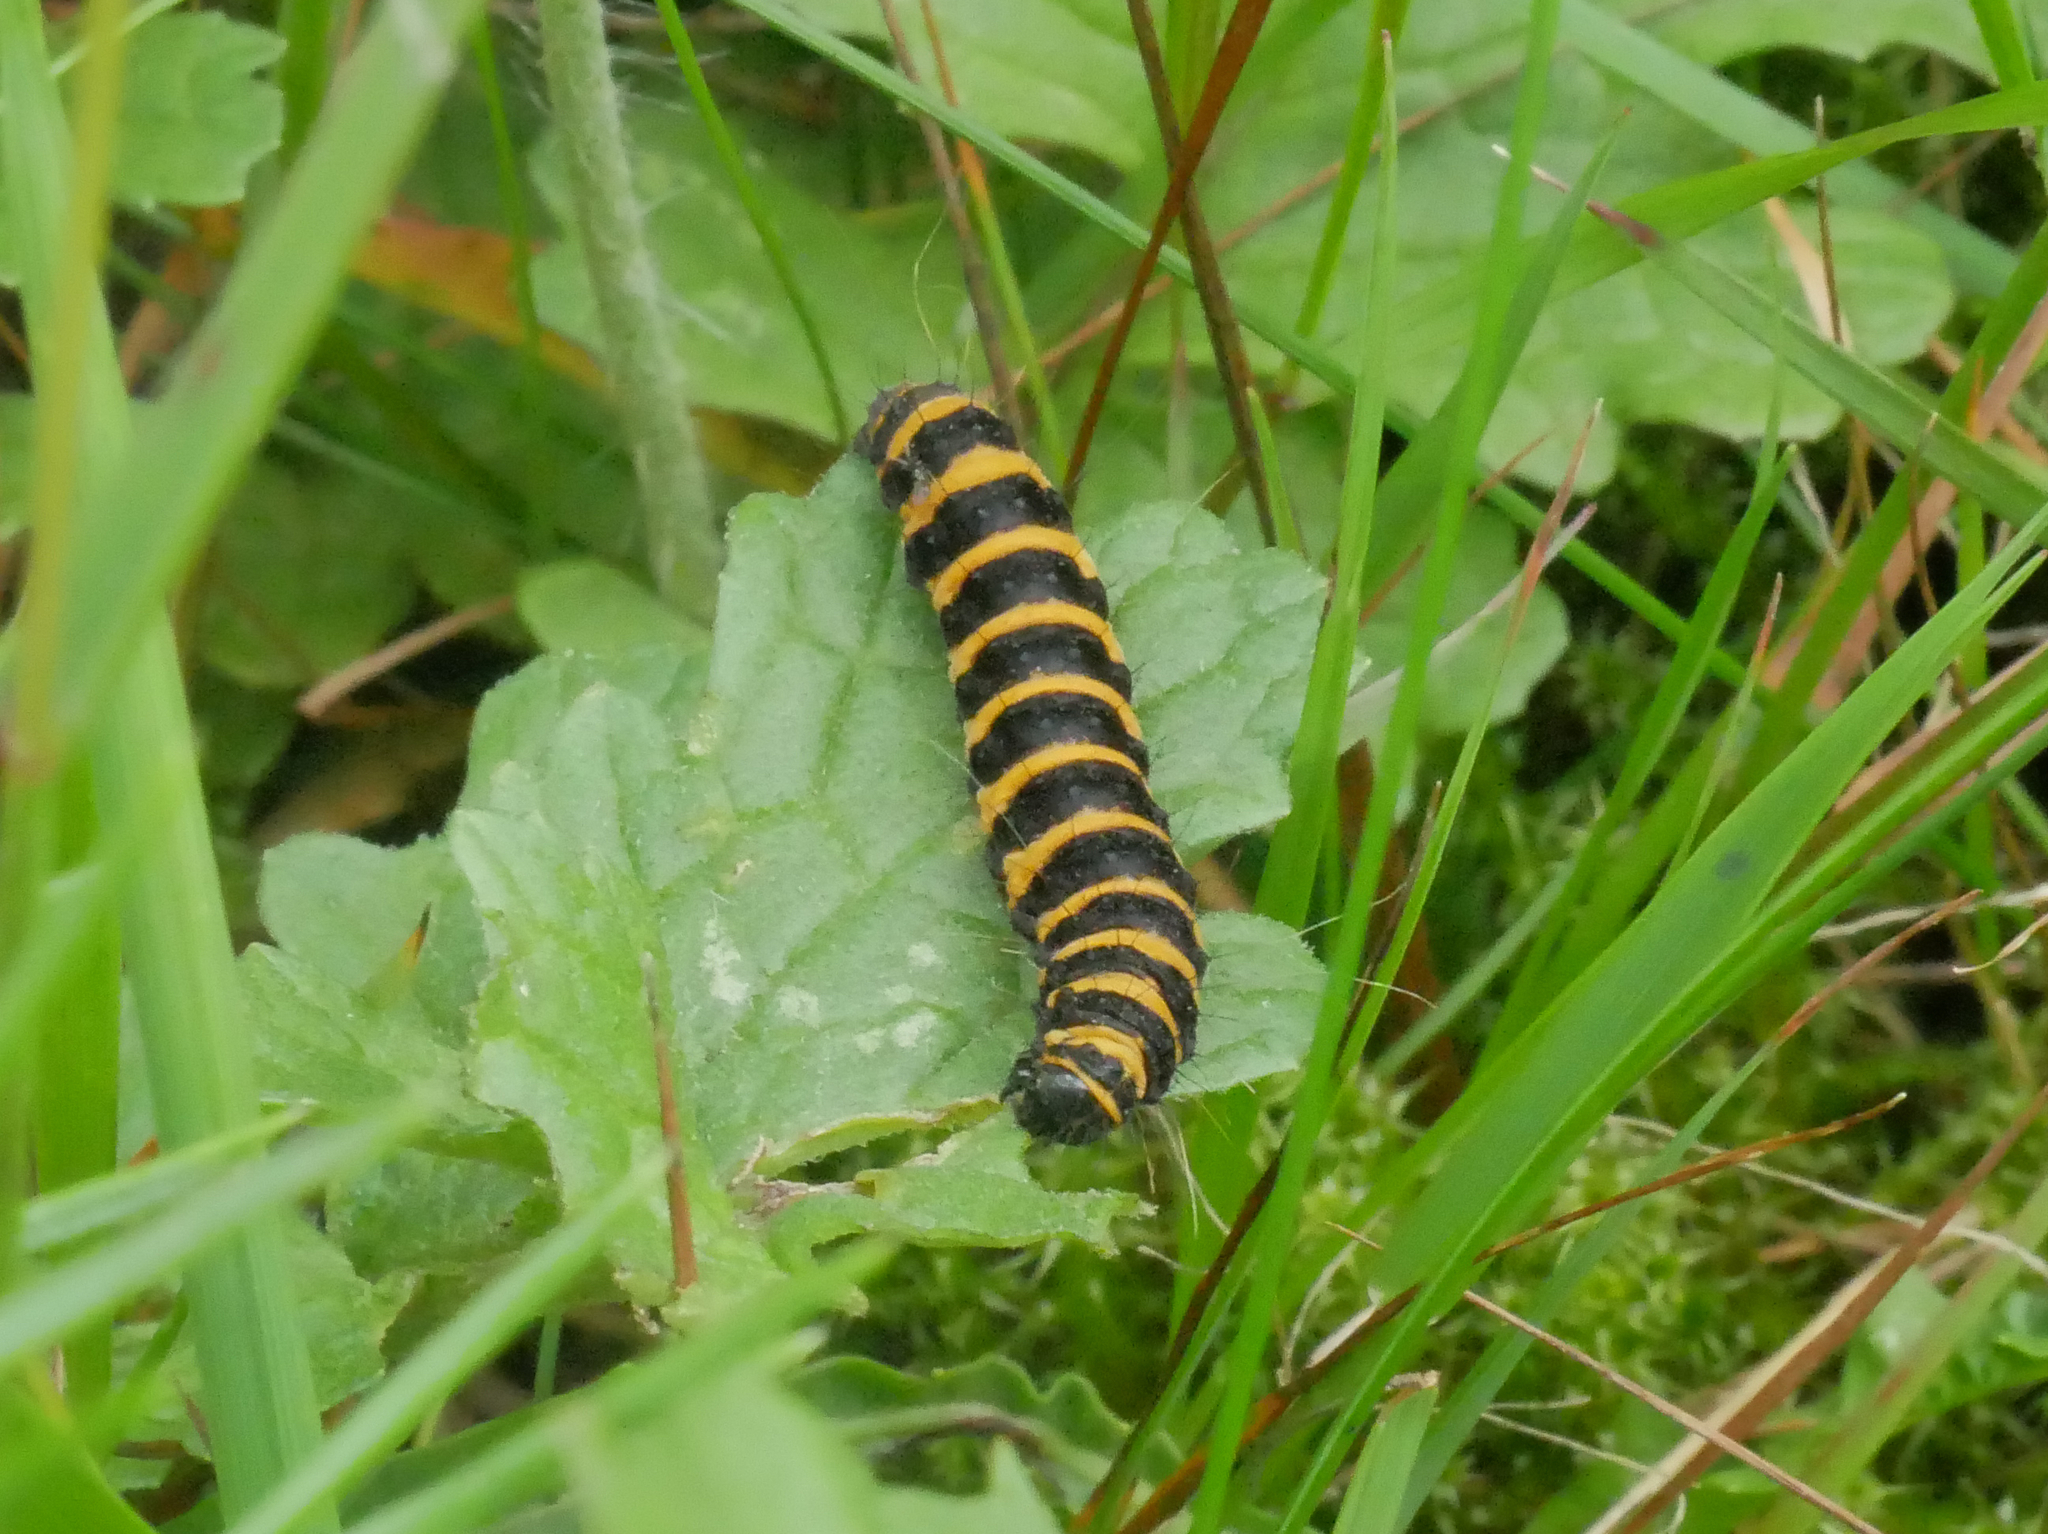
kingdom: Animalia
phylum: Arthropoda
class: Insecta
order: Lepidoptera
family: Erebidae
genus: Tyria
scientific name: Tyria jacobaeae
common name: Cinnabar
